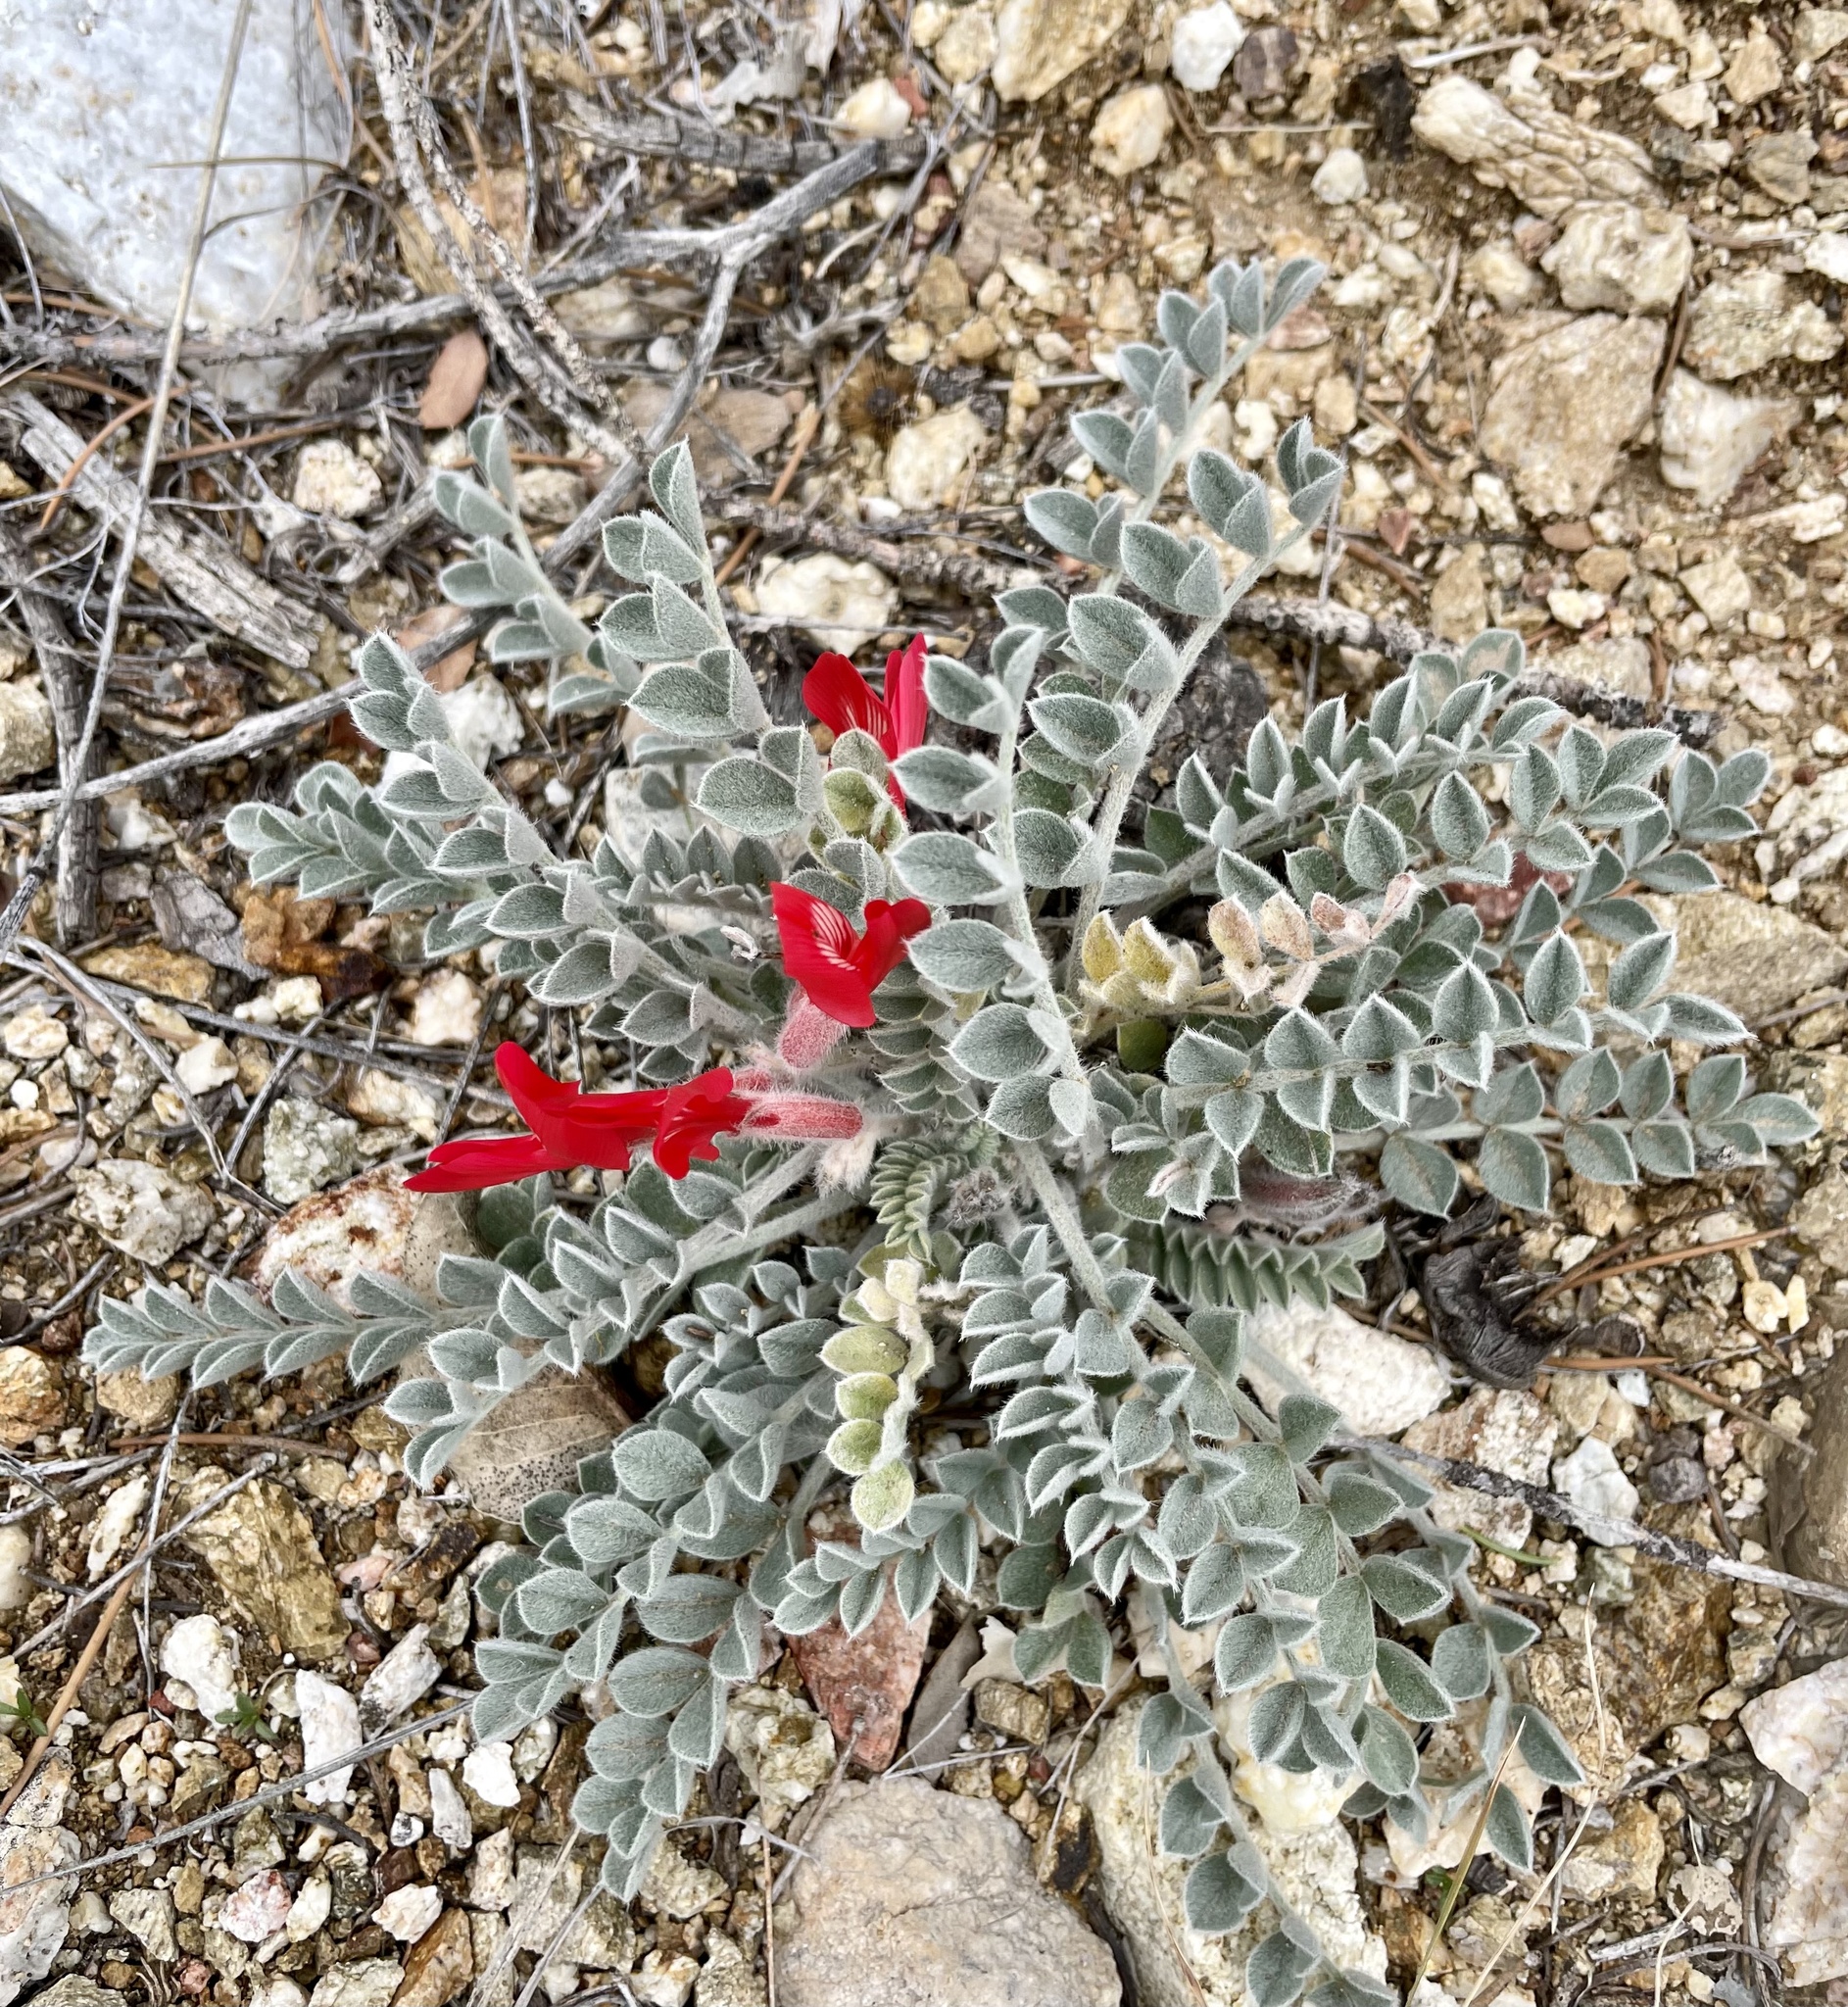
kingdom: Plantae
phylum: Tracheophyta
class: Magnoliopsida
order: Fabales
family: Fabaceae
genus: Astragalus
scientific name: Astragalus coccineus
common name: Scarlet milk-vetch
